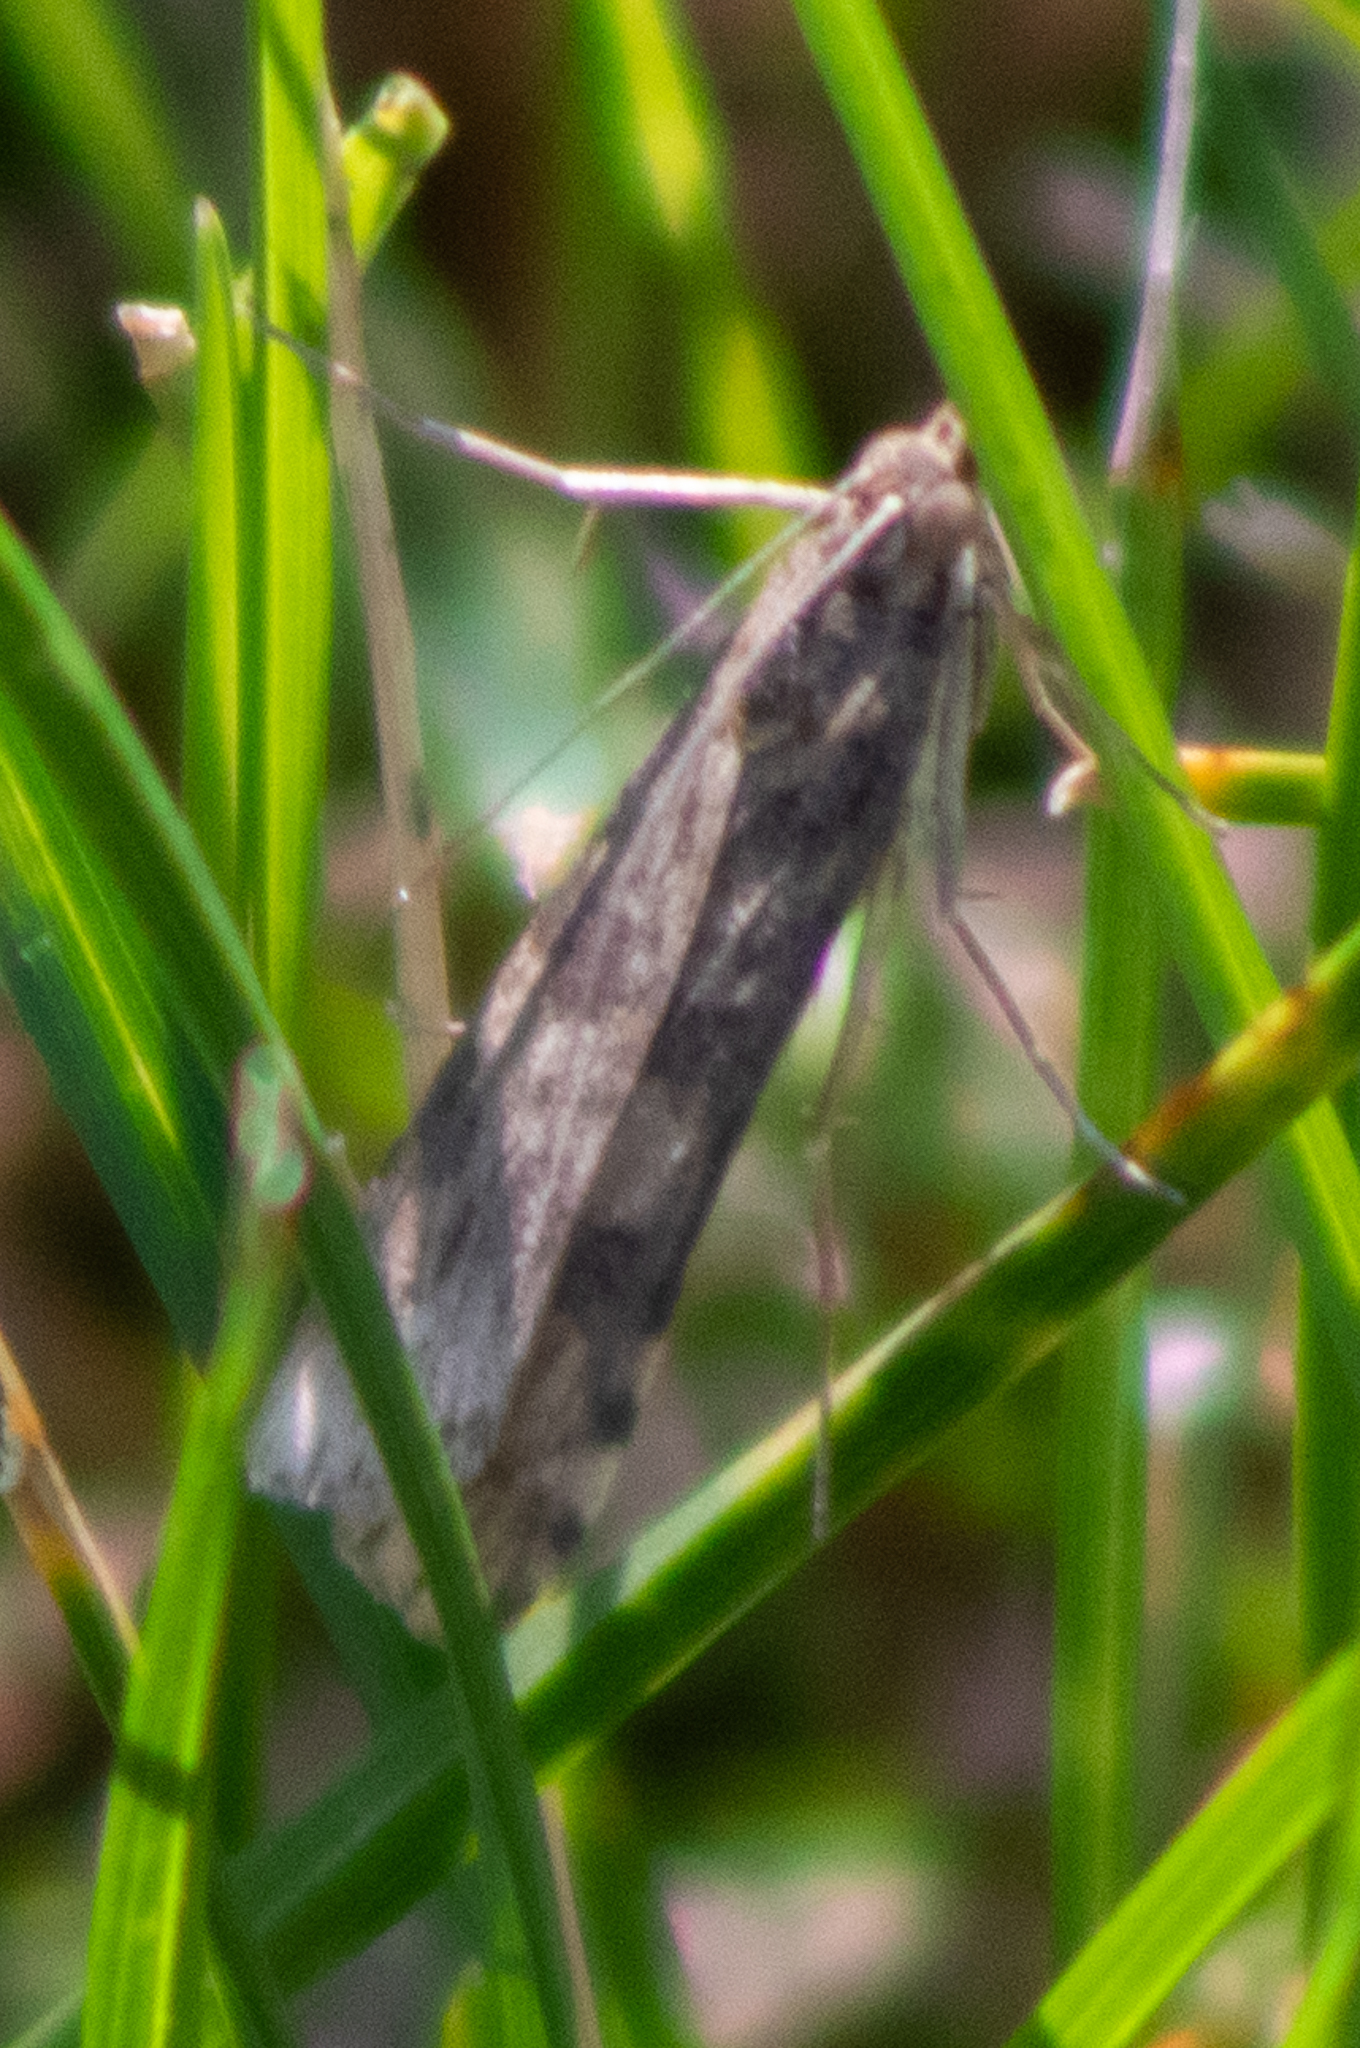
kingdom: Animalia
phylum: Arthropoda
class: Insecta
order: Lepidoptera
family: Crambidae
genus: Nomophila
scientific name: Nomophila nearctica
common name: American rush veneer
